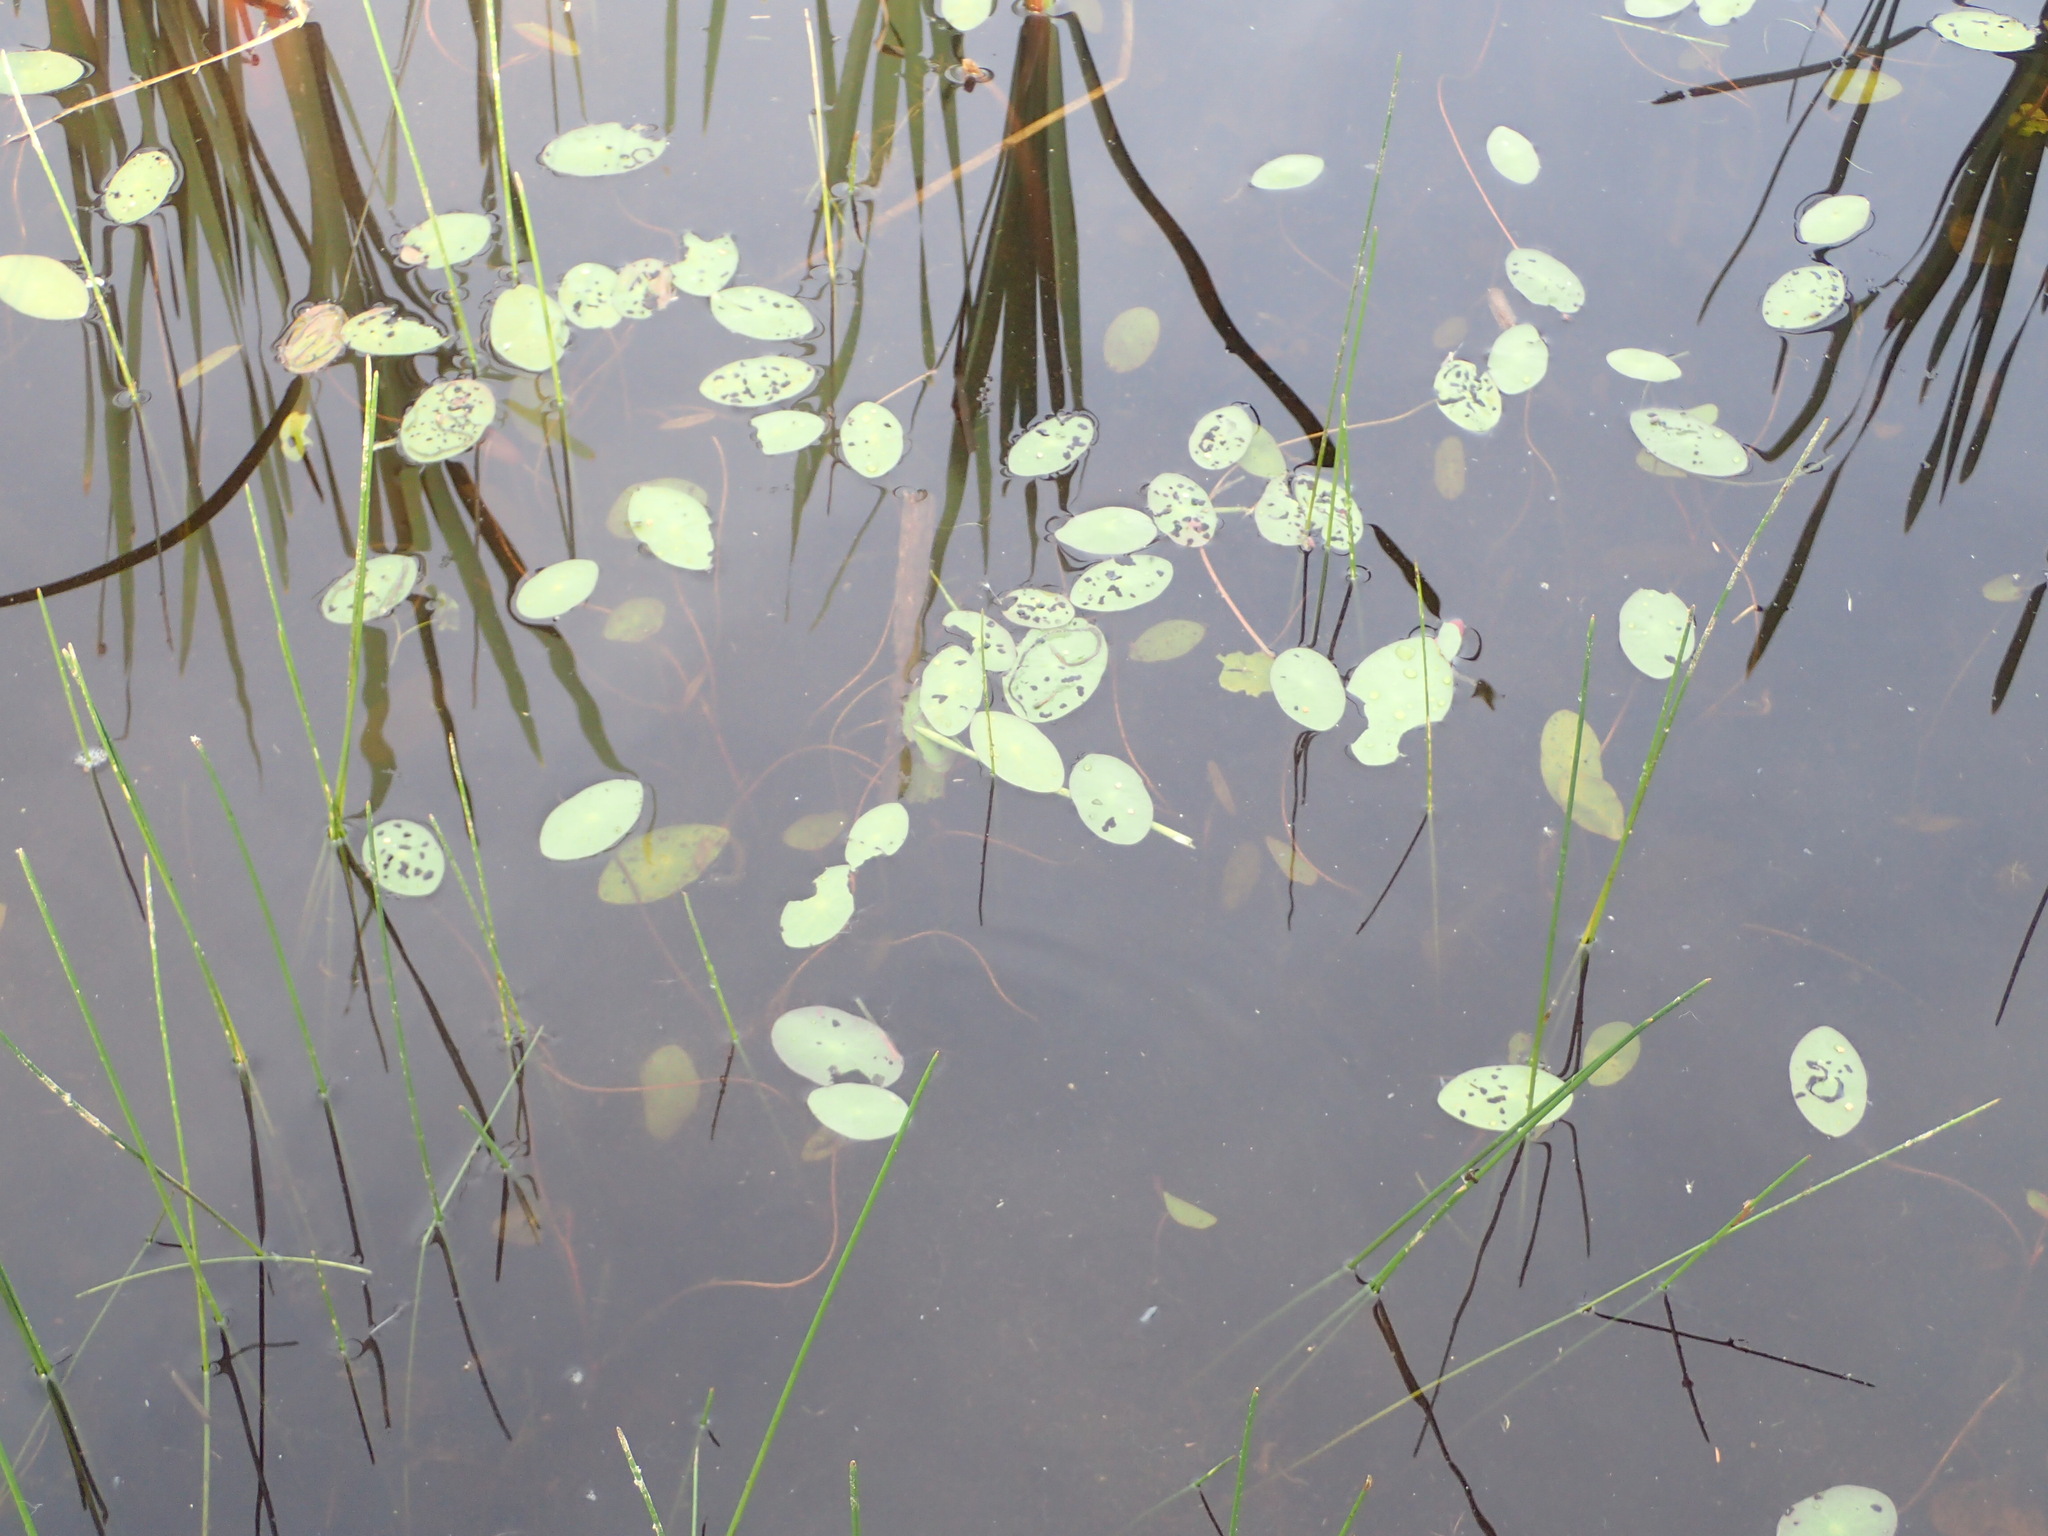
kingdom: Plantae
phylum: Tracheophyta
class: Magnoliopsida
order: Nymphaeales
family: Cabombaceae
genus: Brasenia
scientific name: Brasenia schreberi
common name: Water-shield
